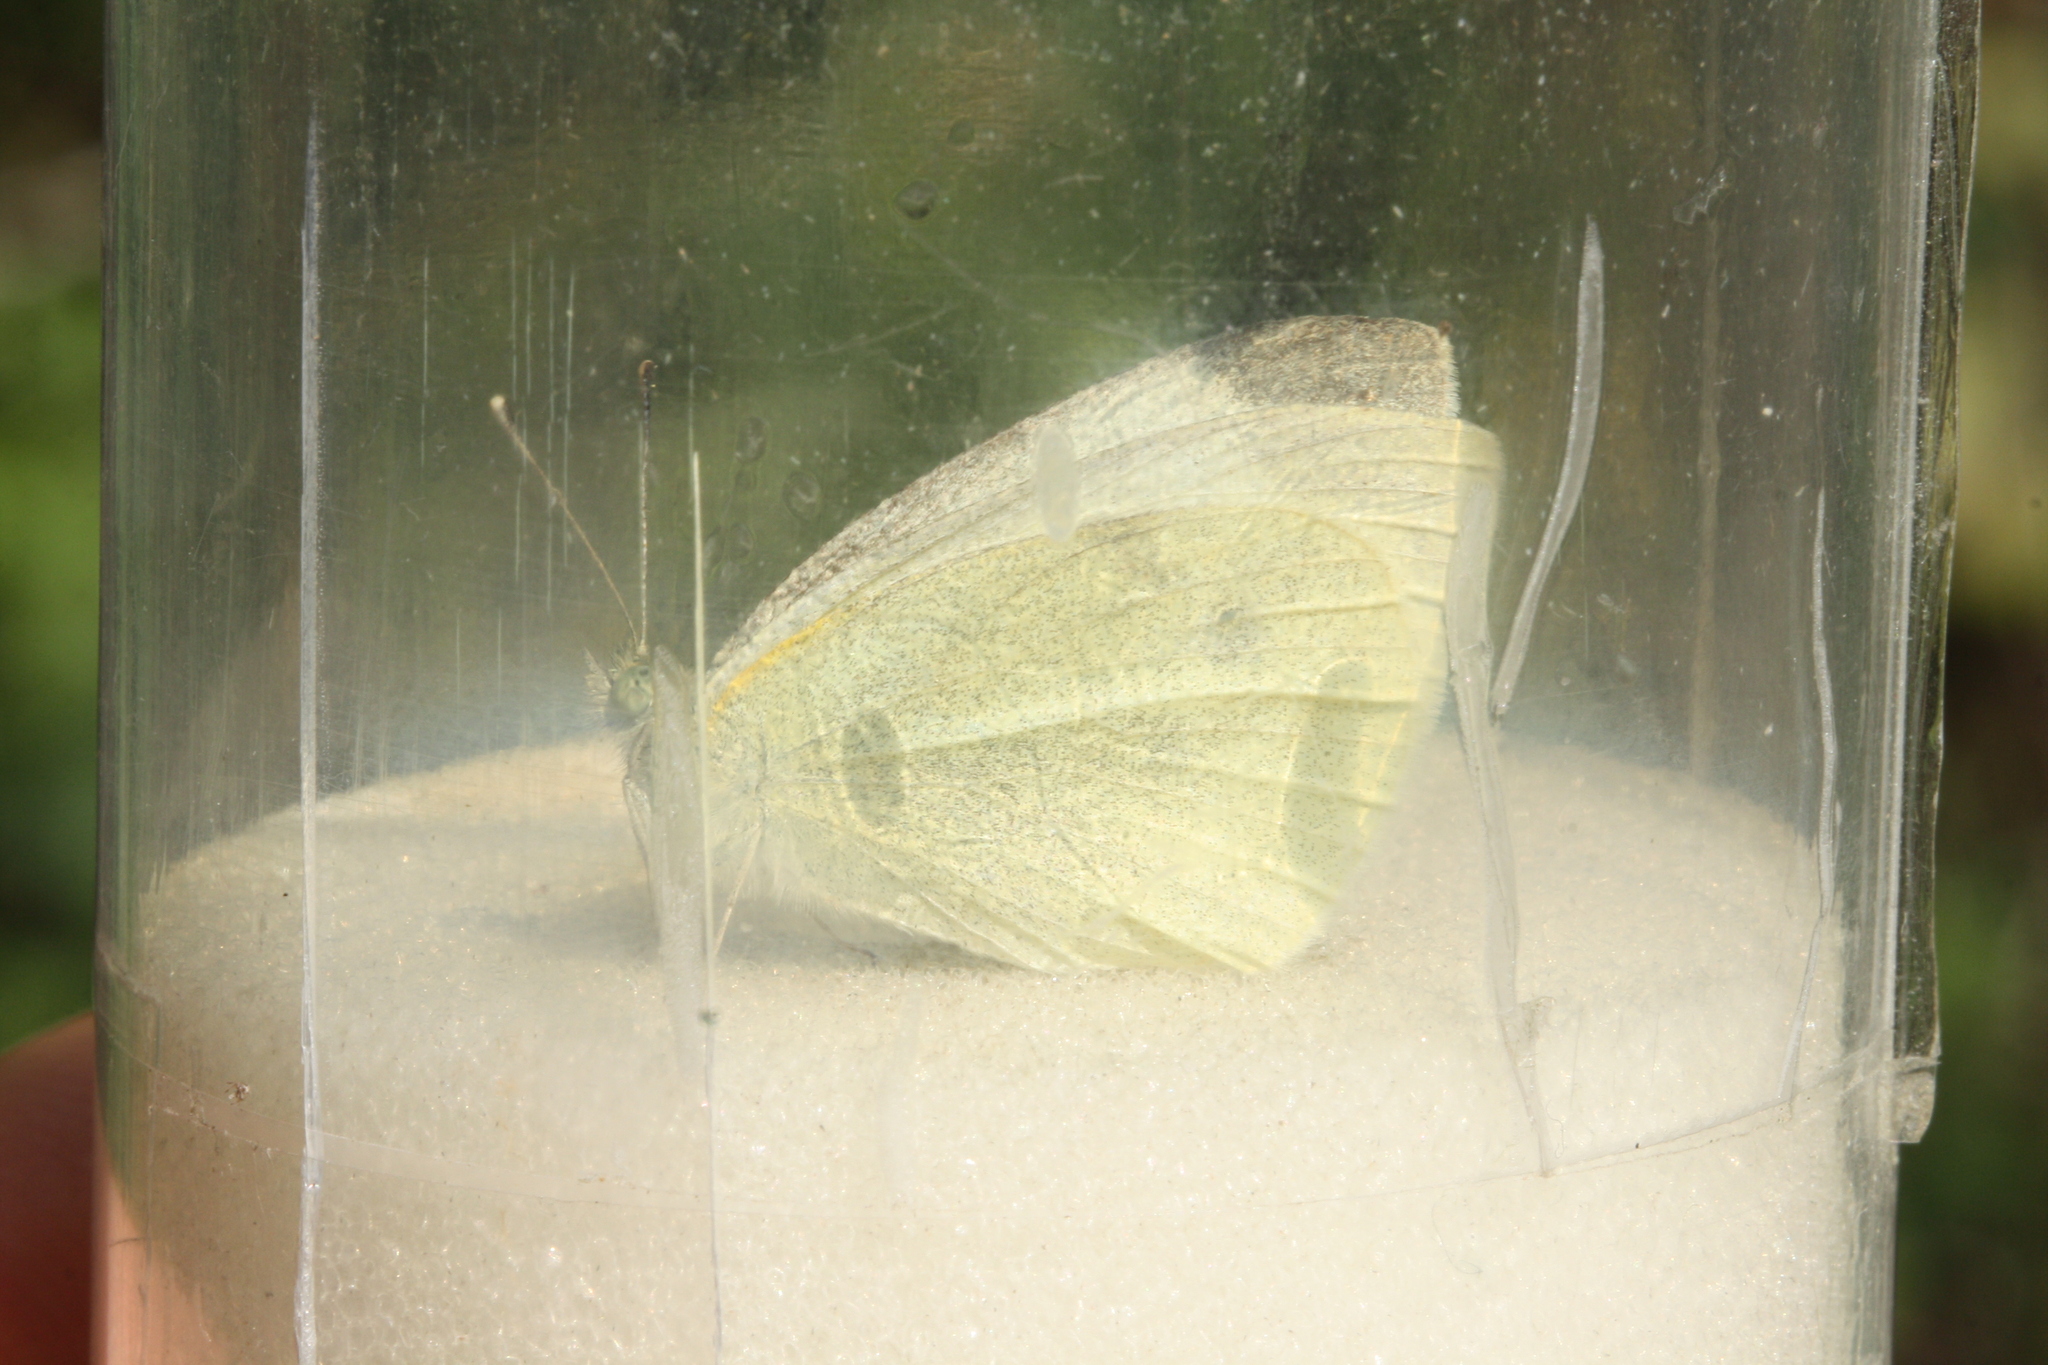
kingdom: Animalia
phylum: Arthropoda
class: Insecta
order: Lepidoptera
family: Pieridae
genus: Pieris
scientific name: Pieris rapae
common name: Small white
